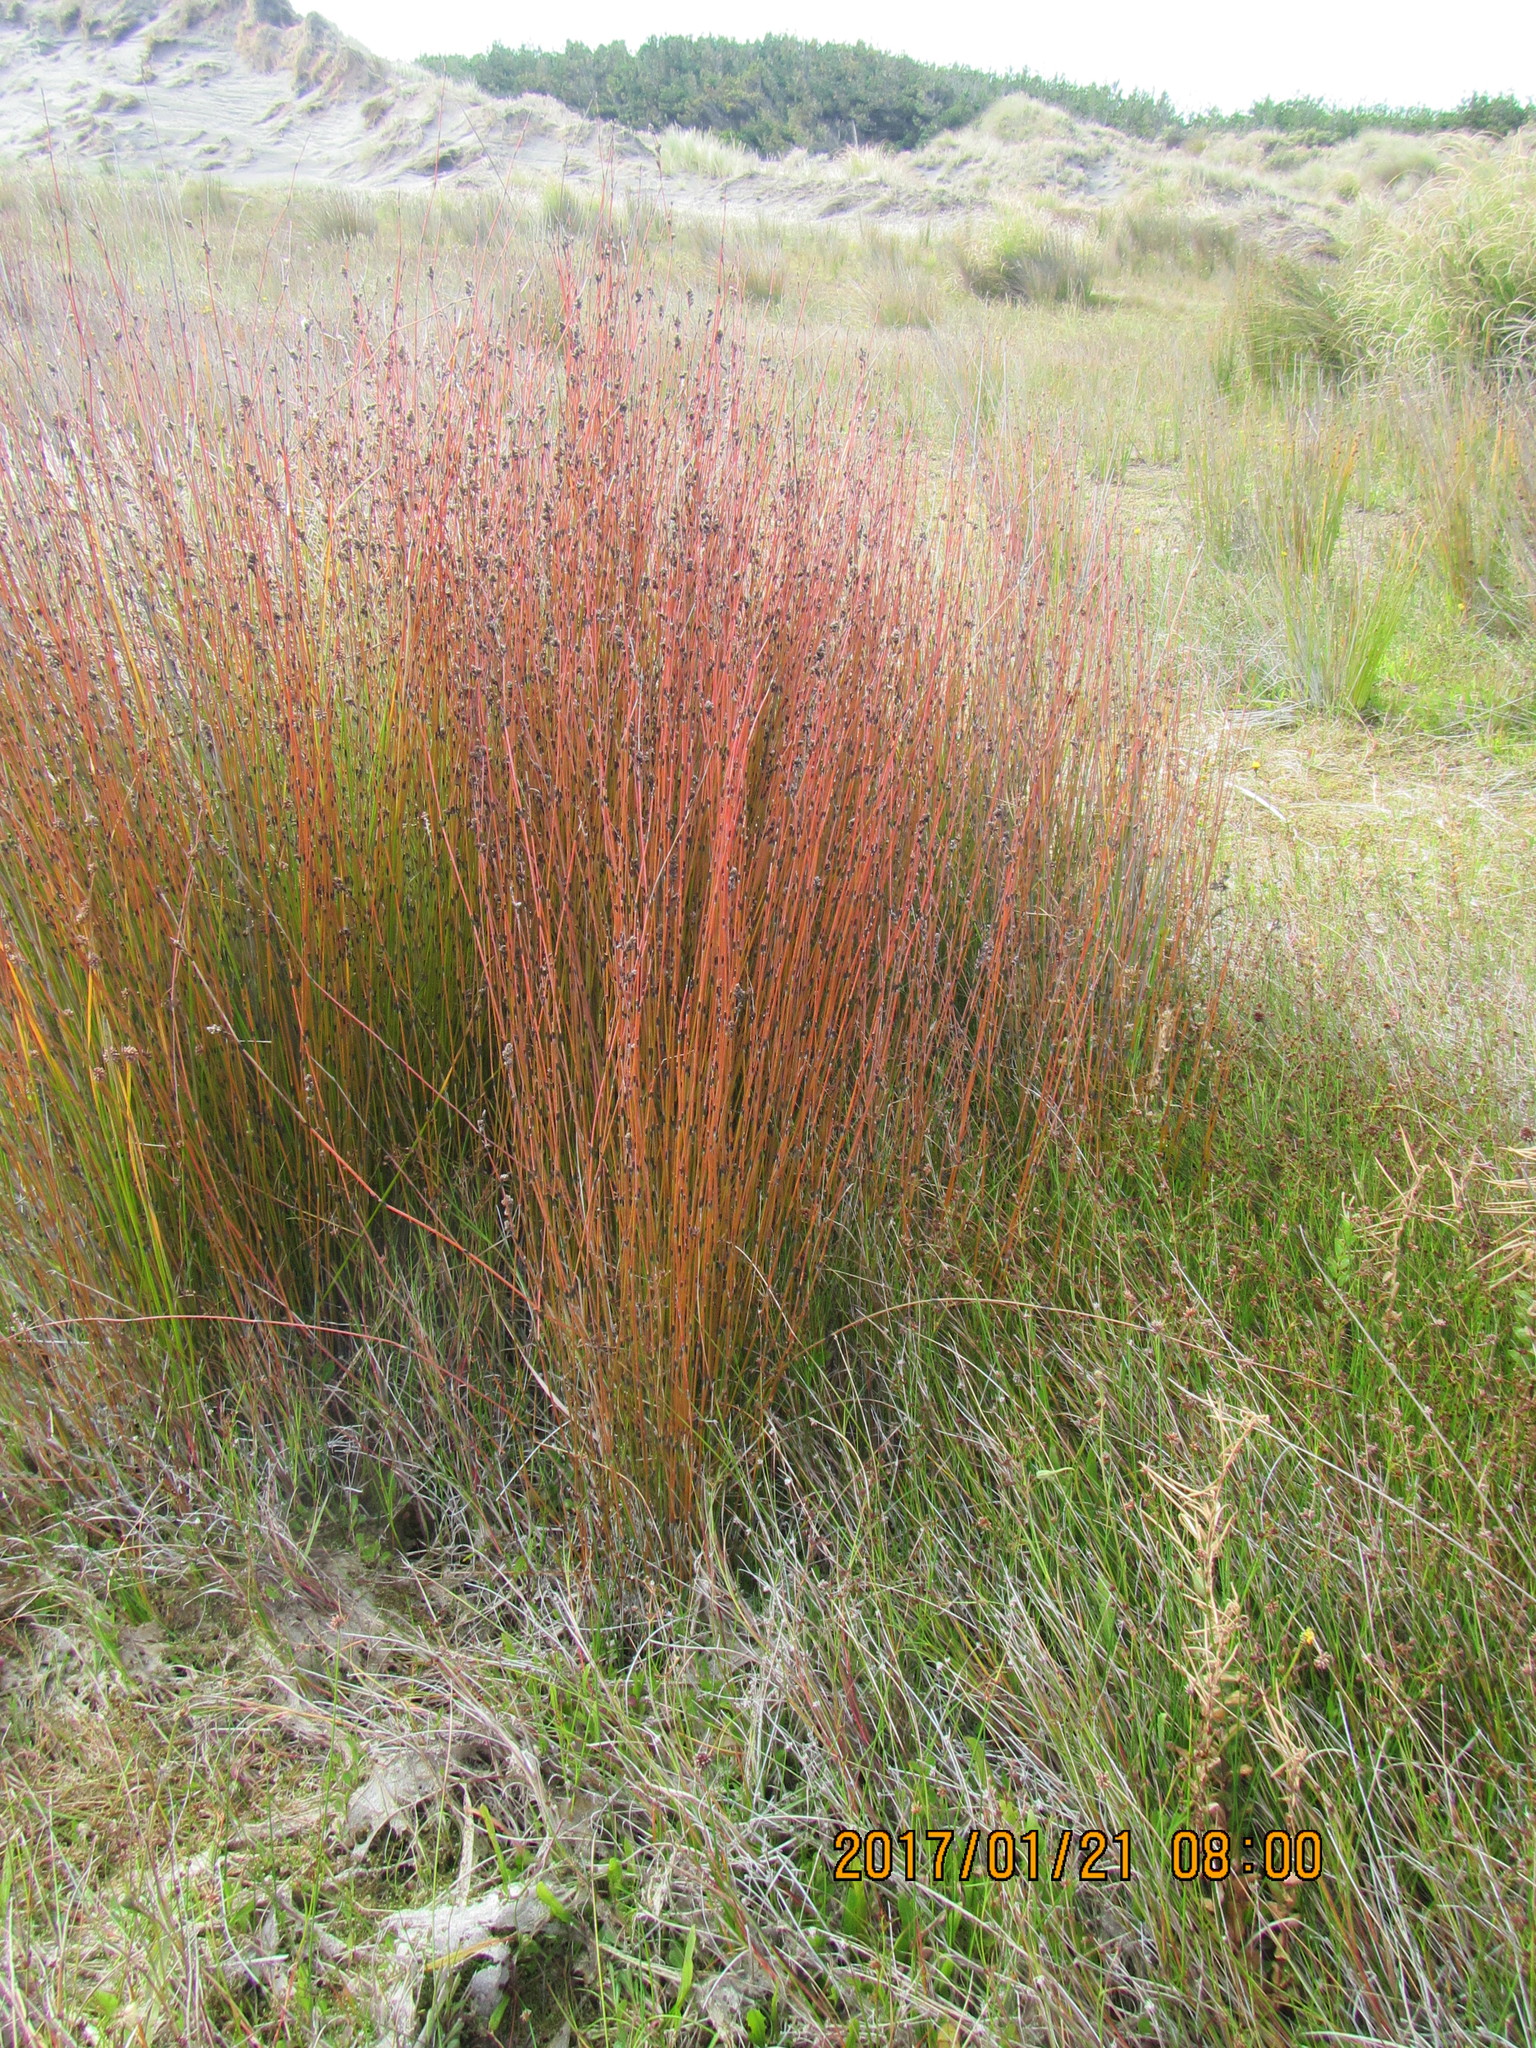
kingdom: Plantae
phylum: Tracheophyta
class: Liliopsida
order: Poales
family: Restionaceae
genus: Apodasmia
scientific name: Apodasmia similis
